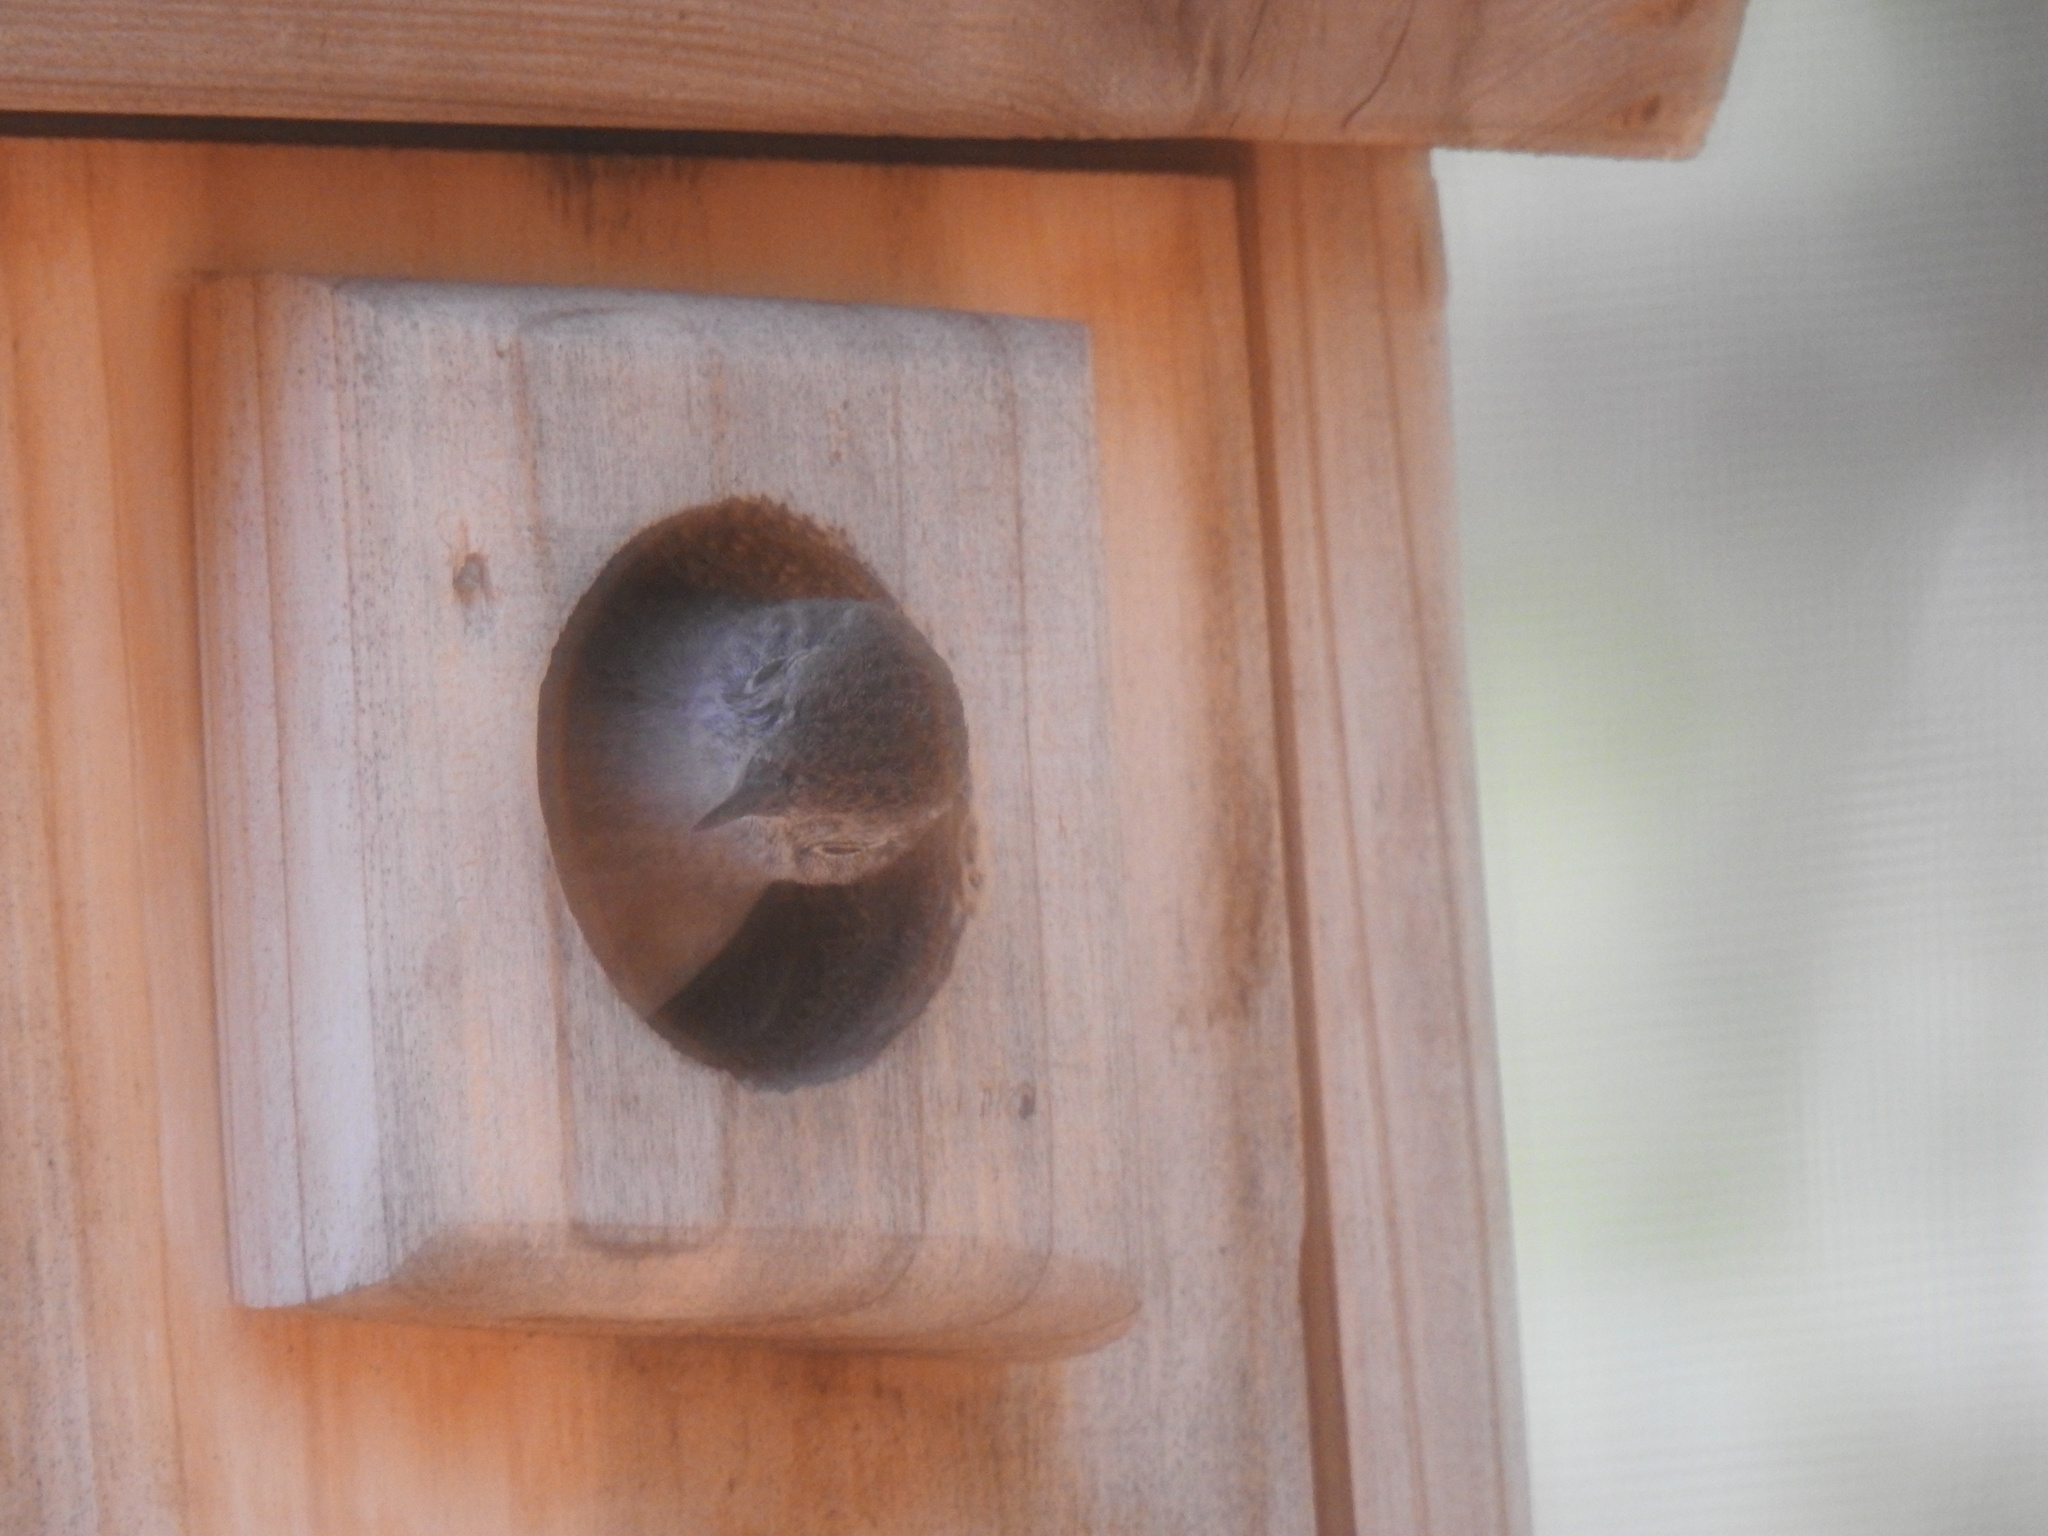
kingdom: Animalia
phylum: Chordata
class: Aves
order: Passeriformes
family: Troglodytidae
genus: Troglodytes
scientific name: Troglodytes aedon
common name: House wren
